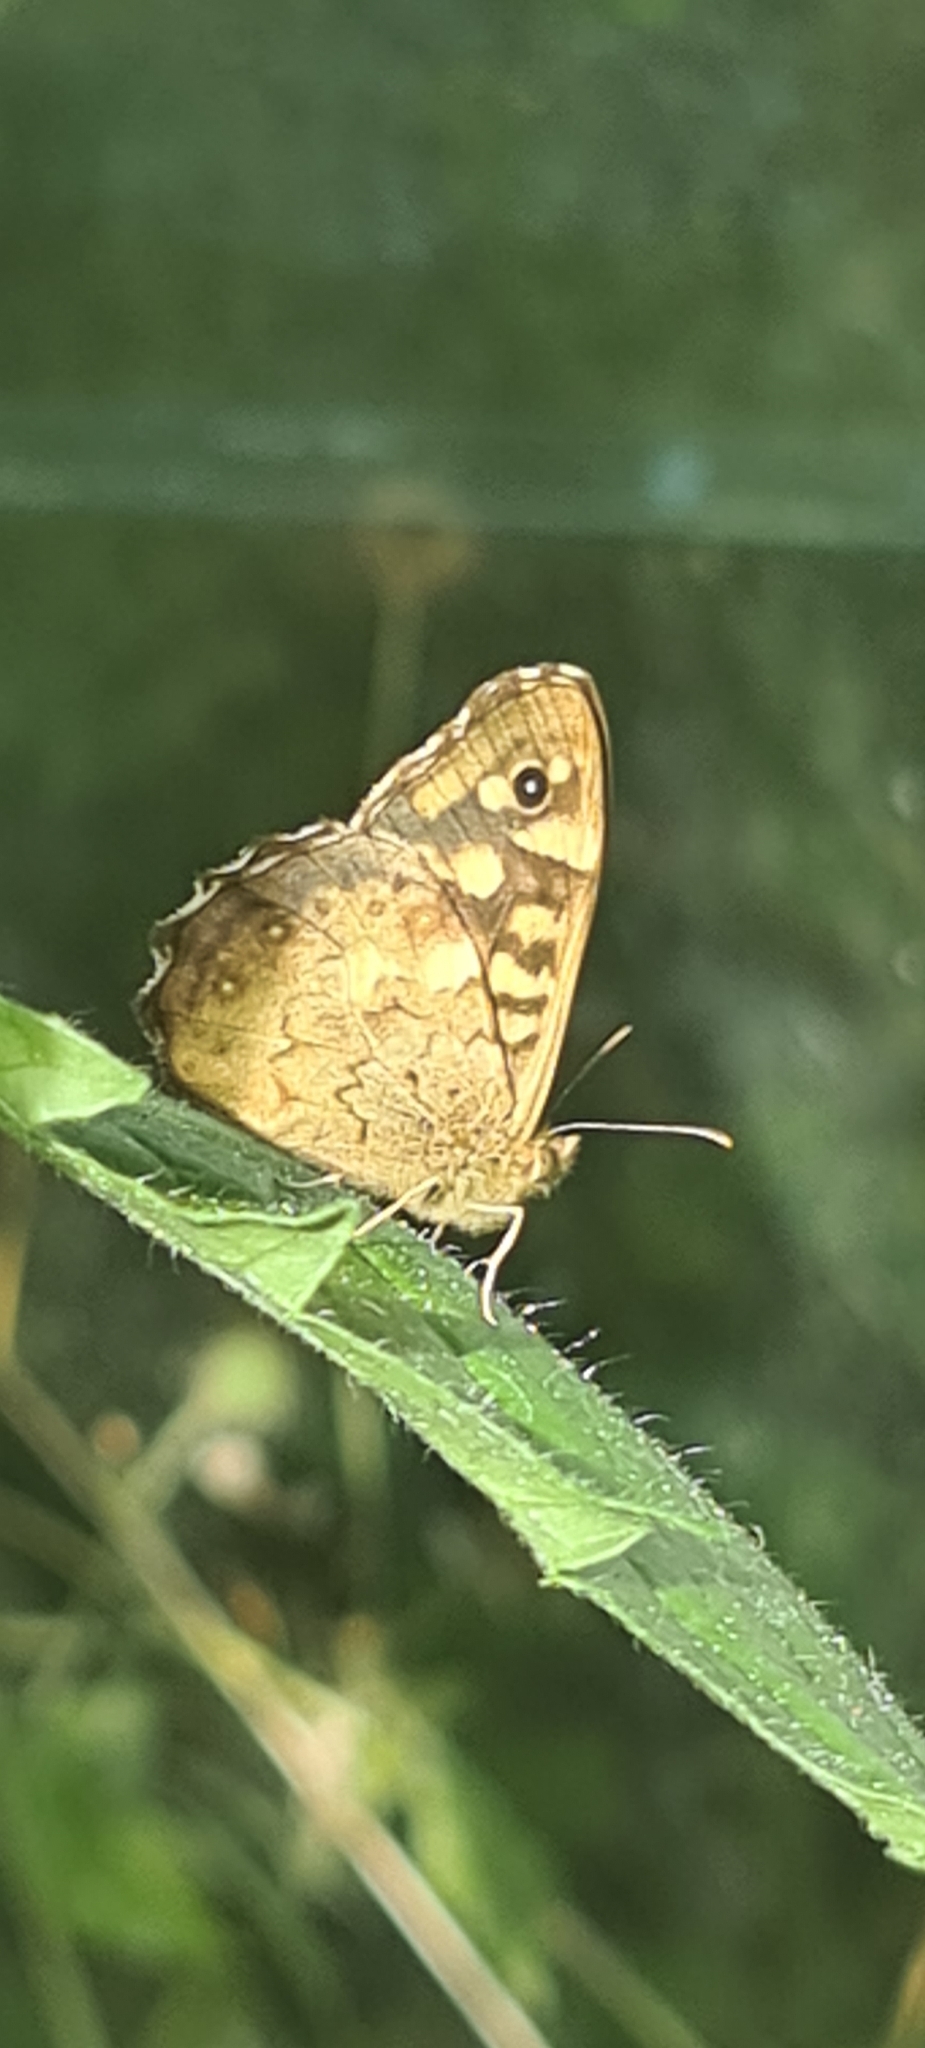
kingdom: Animalia
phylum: Arthropoda
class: Insecta
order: Lepidoptera
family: Nymphalidae
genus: Pararge
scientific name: Pararge aegeria
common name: Speckled wood
